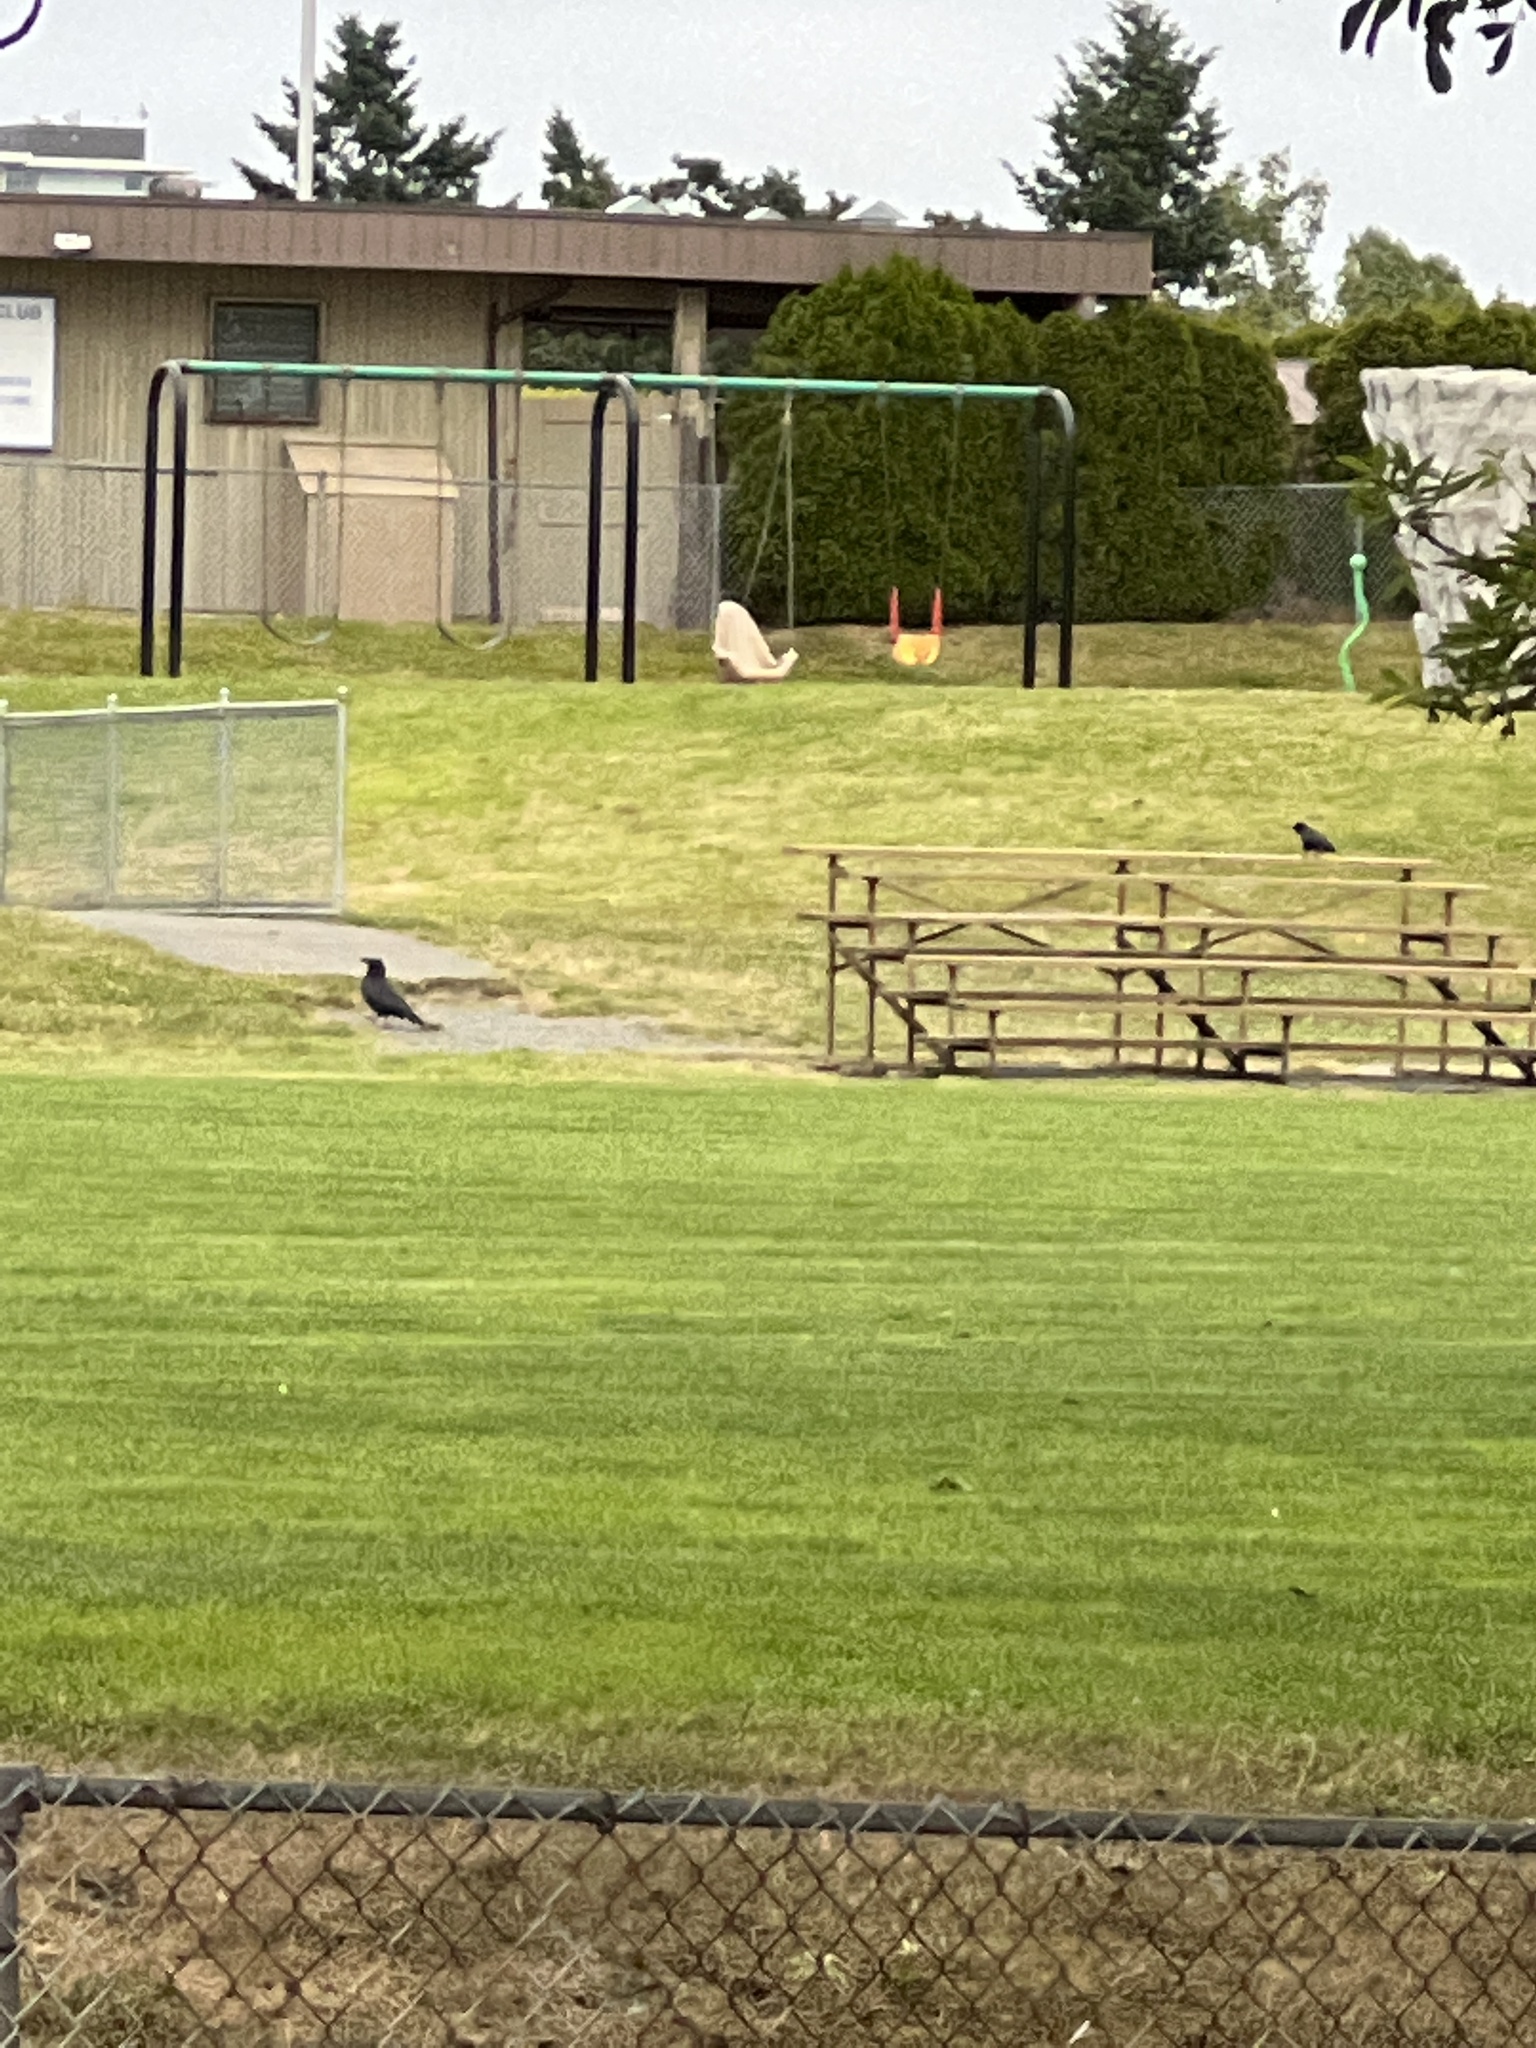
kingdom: Animalia
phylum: Chordata
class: Aves
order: Passeriformes
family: Corvidae
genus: Corvus
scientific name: Corvus corax
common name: Common raven
